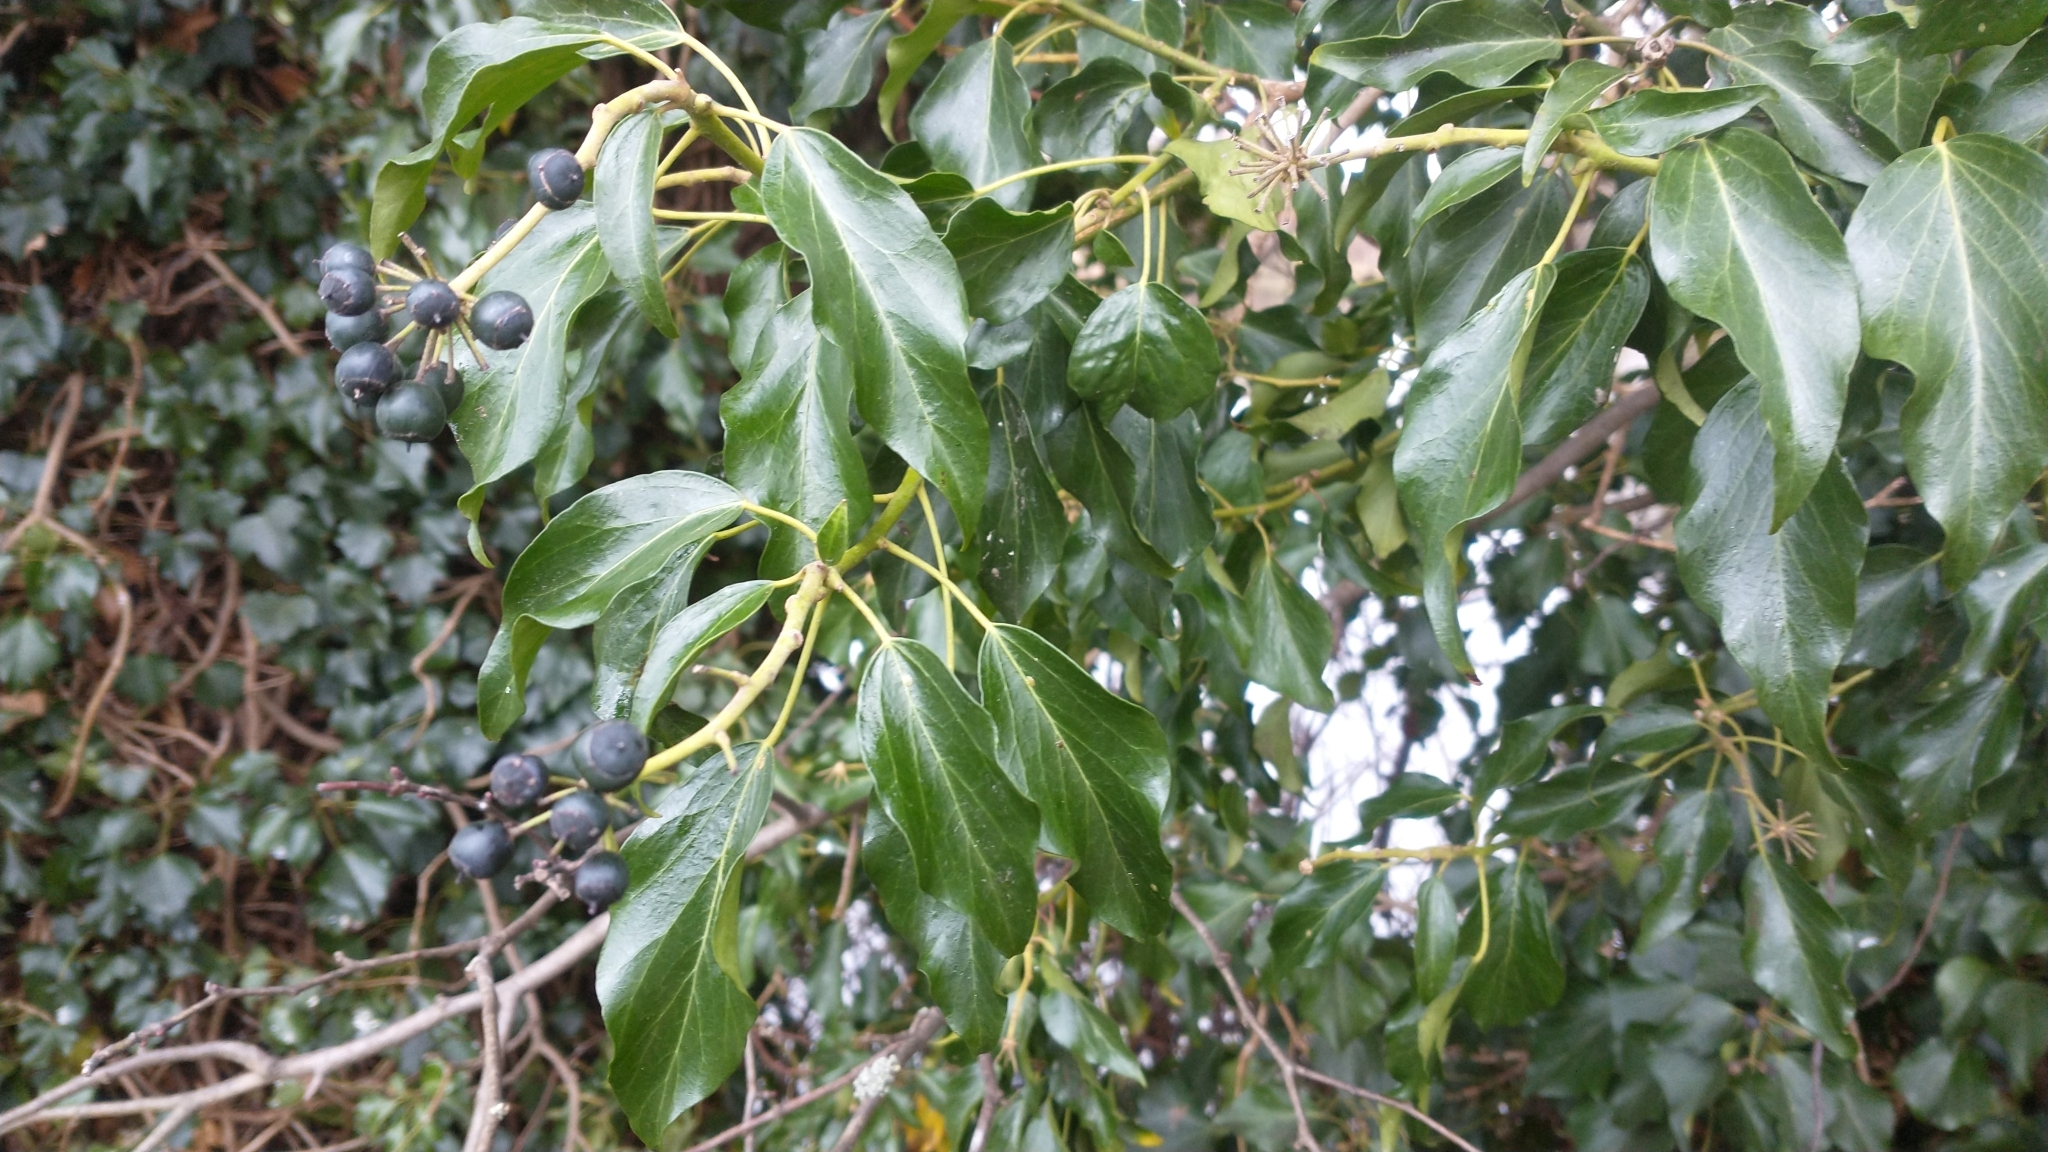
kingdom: Plantae
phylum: Tracheophyta
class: Magnoliopsida
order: Apiales
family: Araliaceae
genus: Hedera
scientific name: Hedera helix
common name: Ivy
